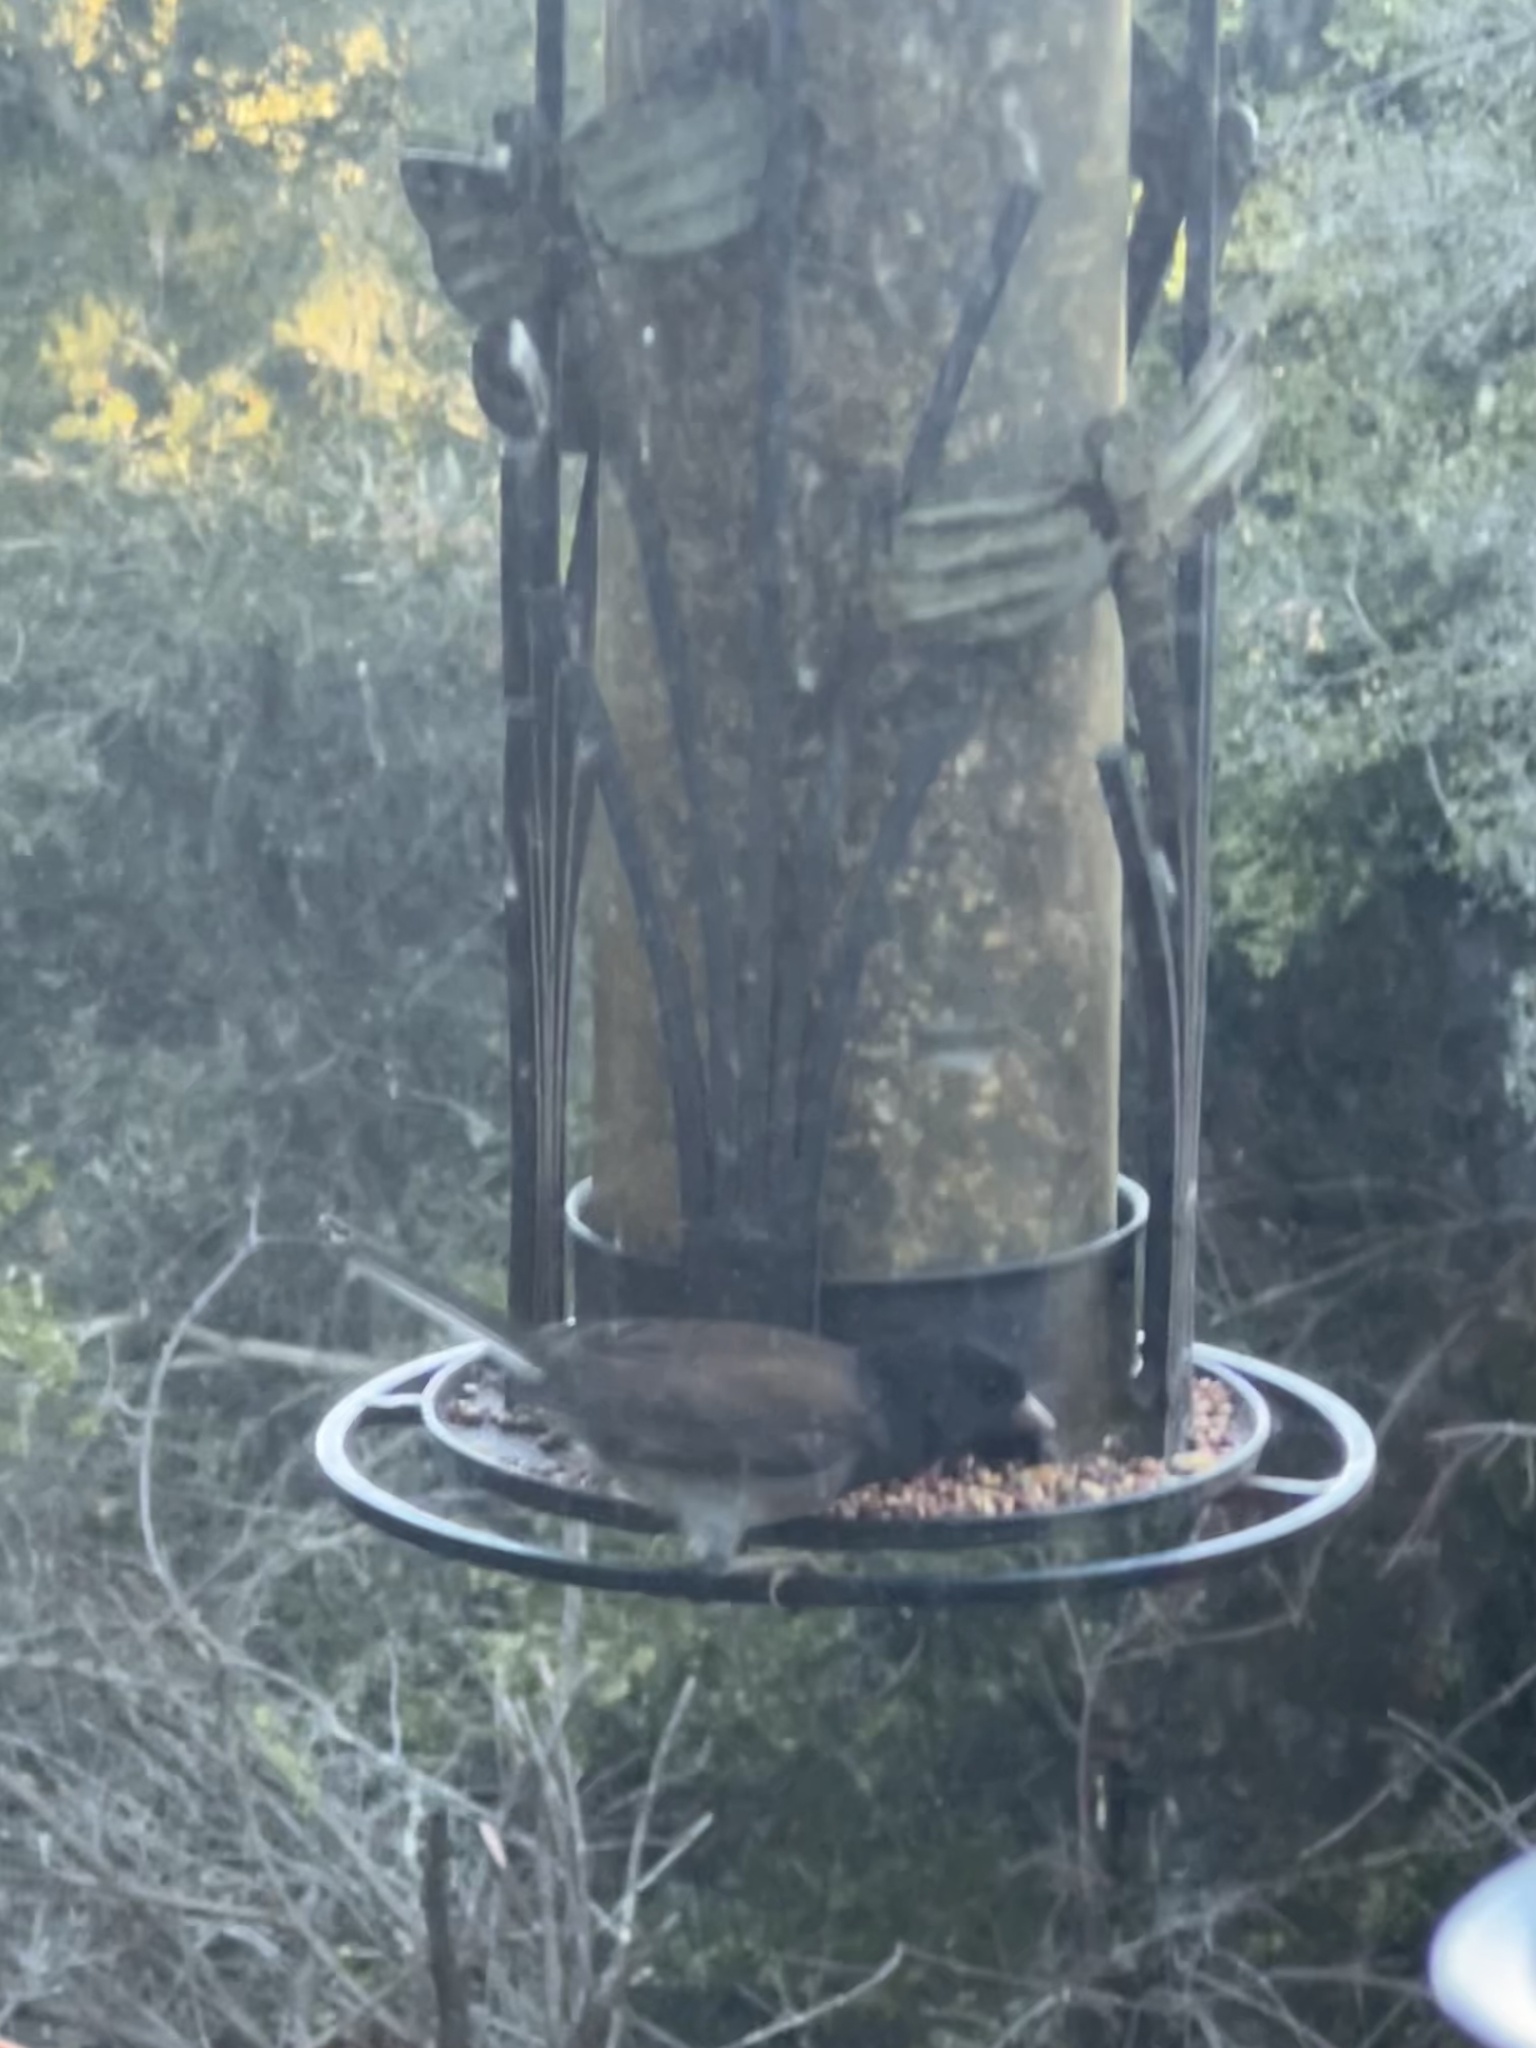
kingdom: Animalia
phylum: Chordata
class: Aves
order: Passeriformes
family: Passerellidae
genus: Junco
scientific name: Junco hyemalis
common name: Dark-eyed junco
